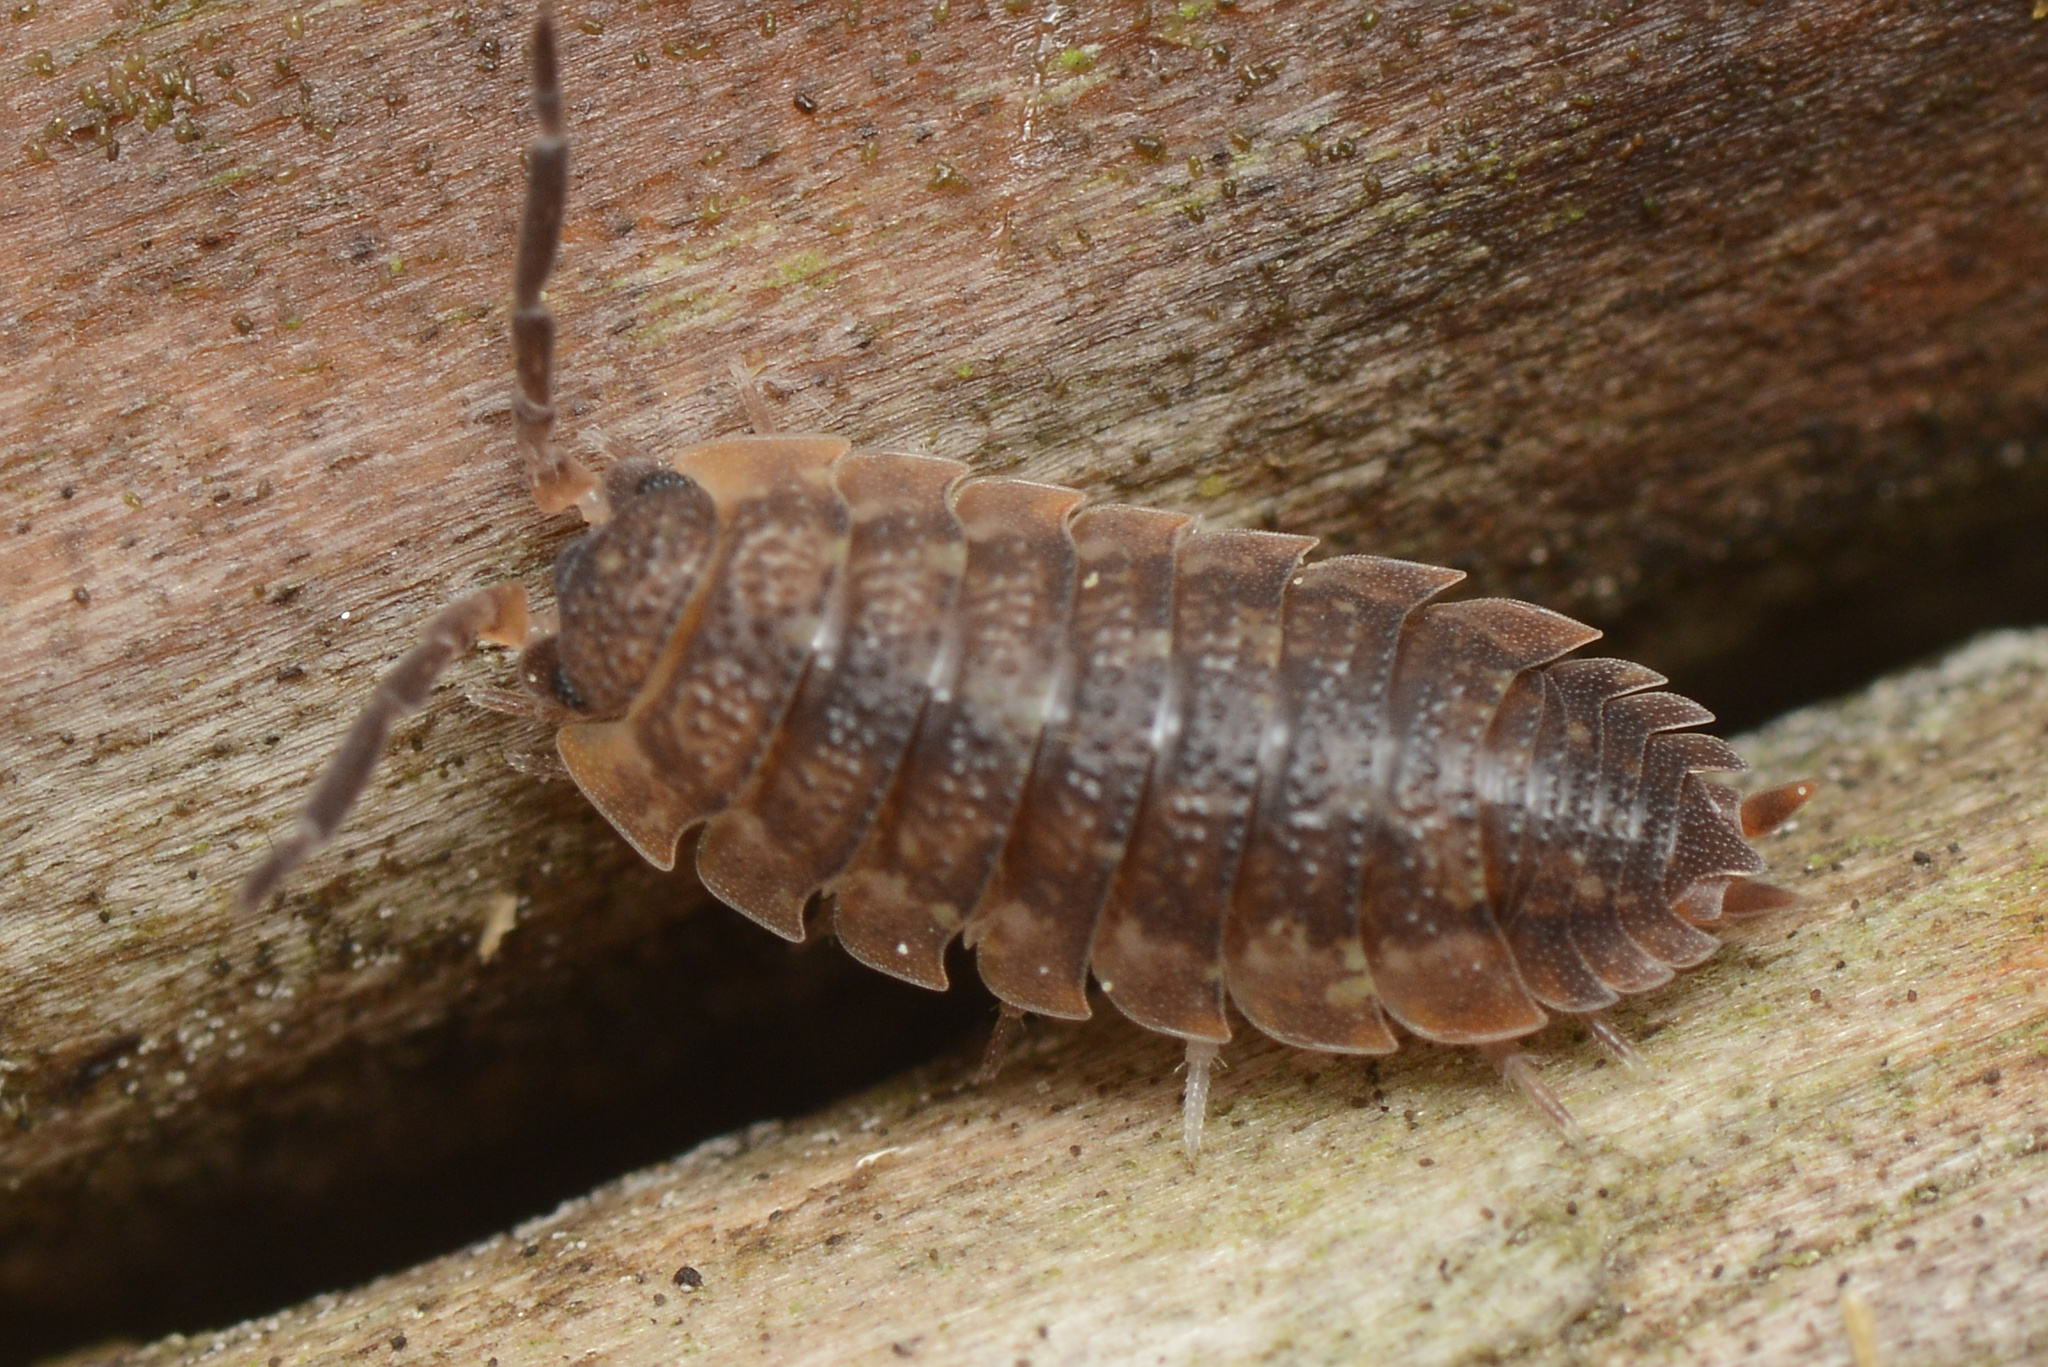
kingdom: Animalia
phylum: Arthropoda
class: Malacostraca
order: Isopoda
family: Porcellionidae
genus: Porcellio
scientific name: Porcellio scaber
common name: Common rough woodlouse
